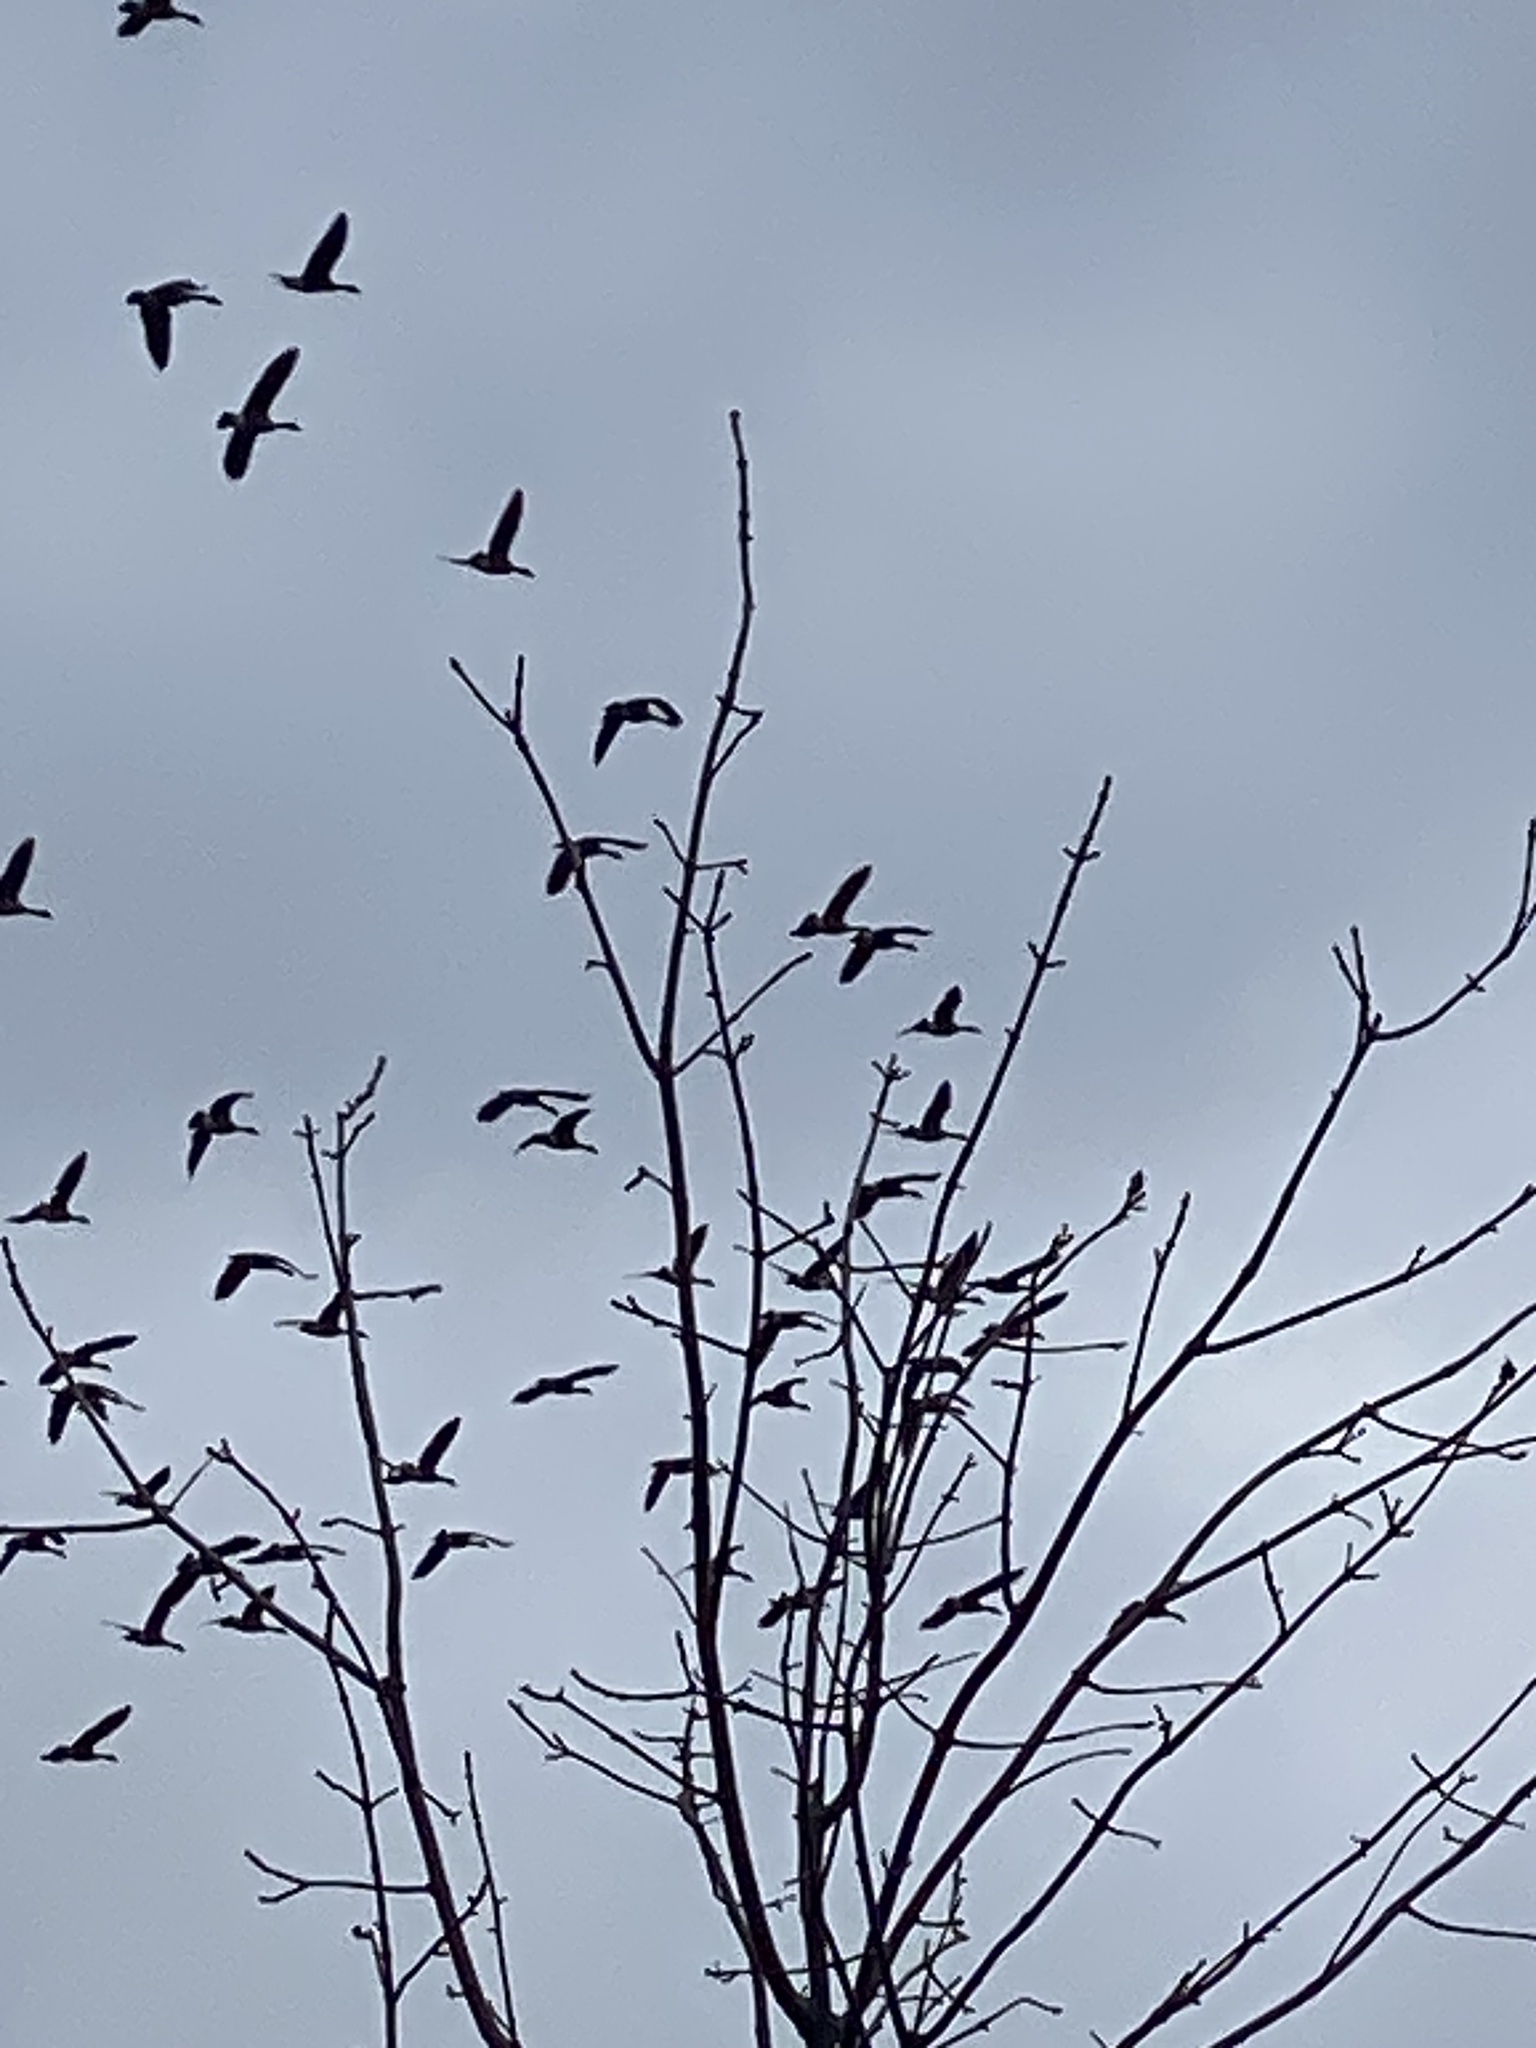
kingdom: Animalia
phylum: Chordata
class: Aves
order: Anseriformes
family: Anatidae
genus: Branta
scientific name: Branta canadensis
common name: Canada goose
